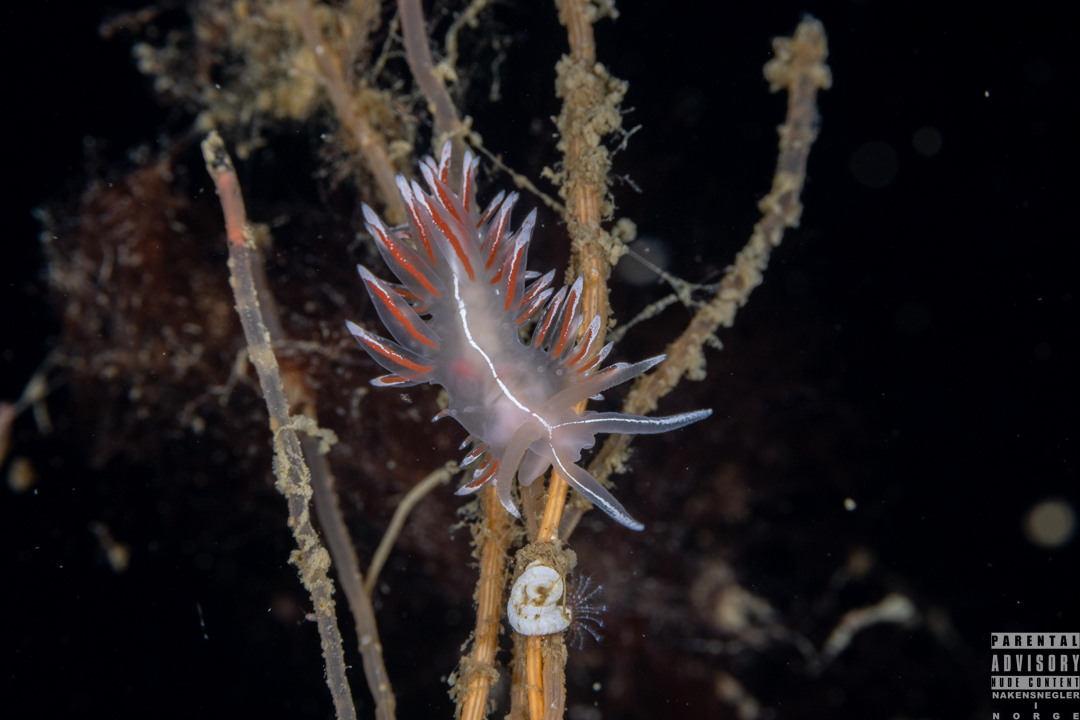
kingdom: Animalia
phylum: Mollusca
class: Gastropoda
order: Nudibranchia
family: Coryphellidae
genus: Coryphella
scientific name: Coryphella lineata
